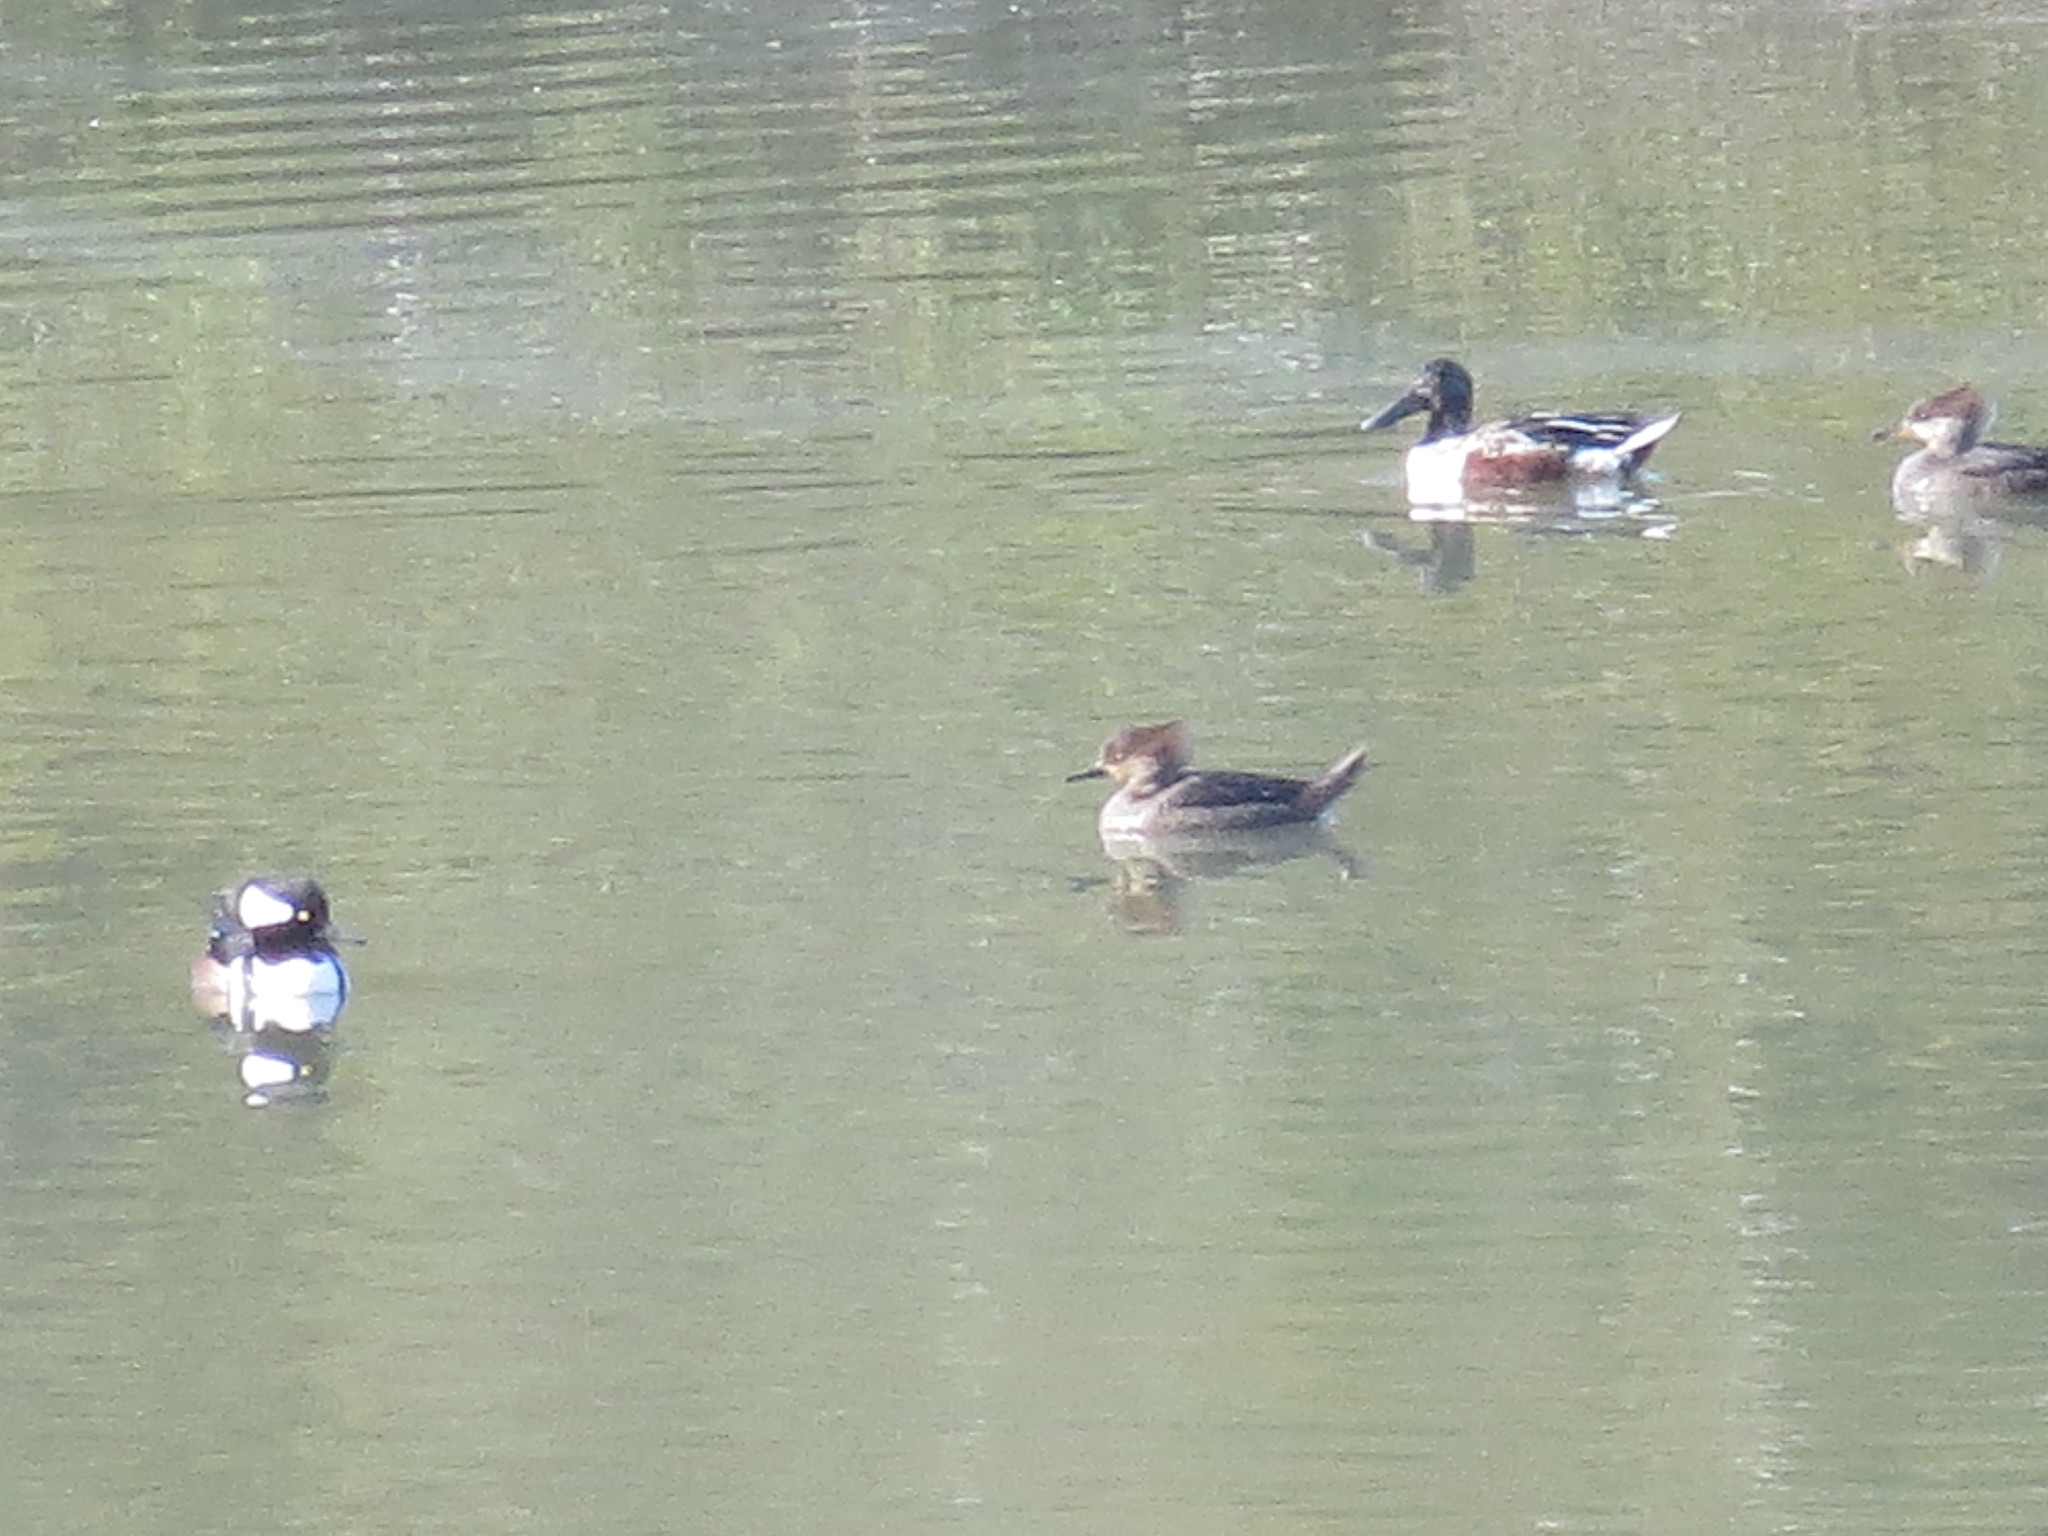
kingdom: Animalia
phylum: Chordata
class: Aves
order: Anseriformes
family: Anatidae
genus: Lophodytes
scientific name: Lophodytes cucullatus
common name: Hooded merganser
